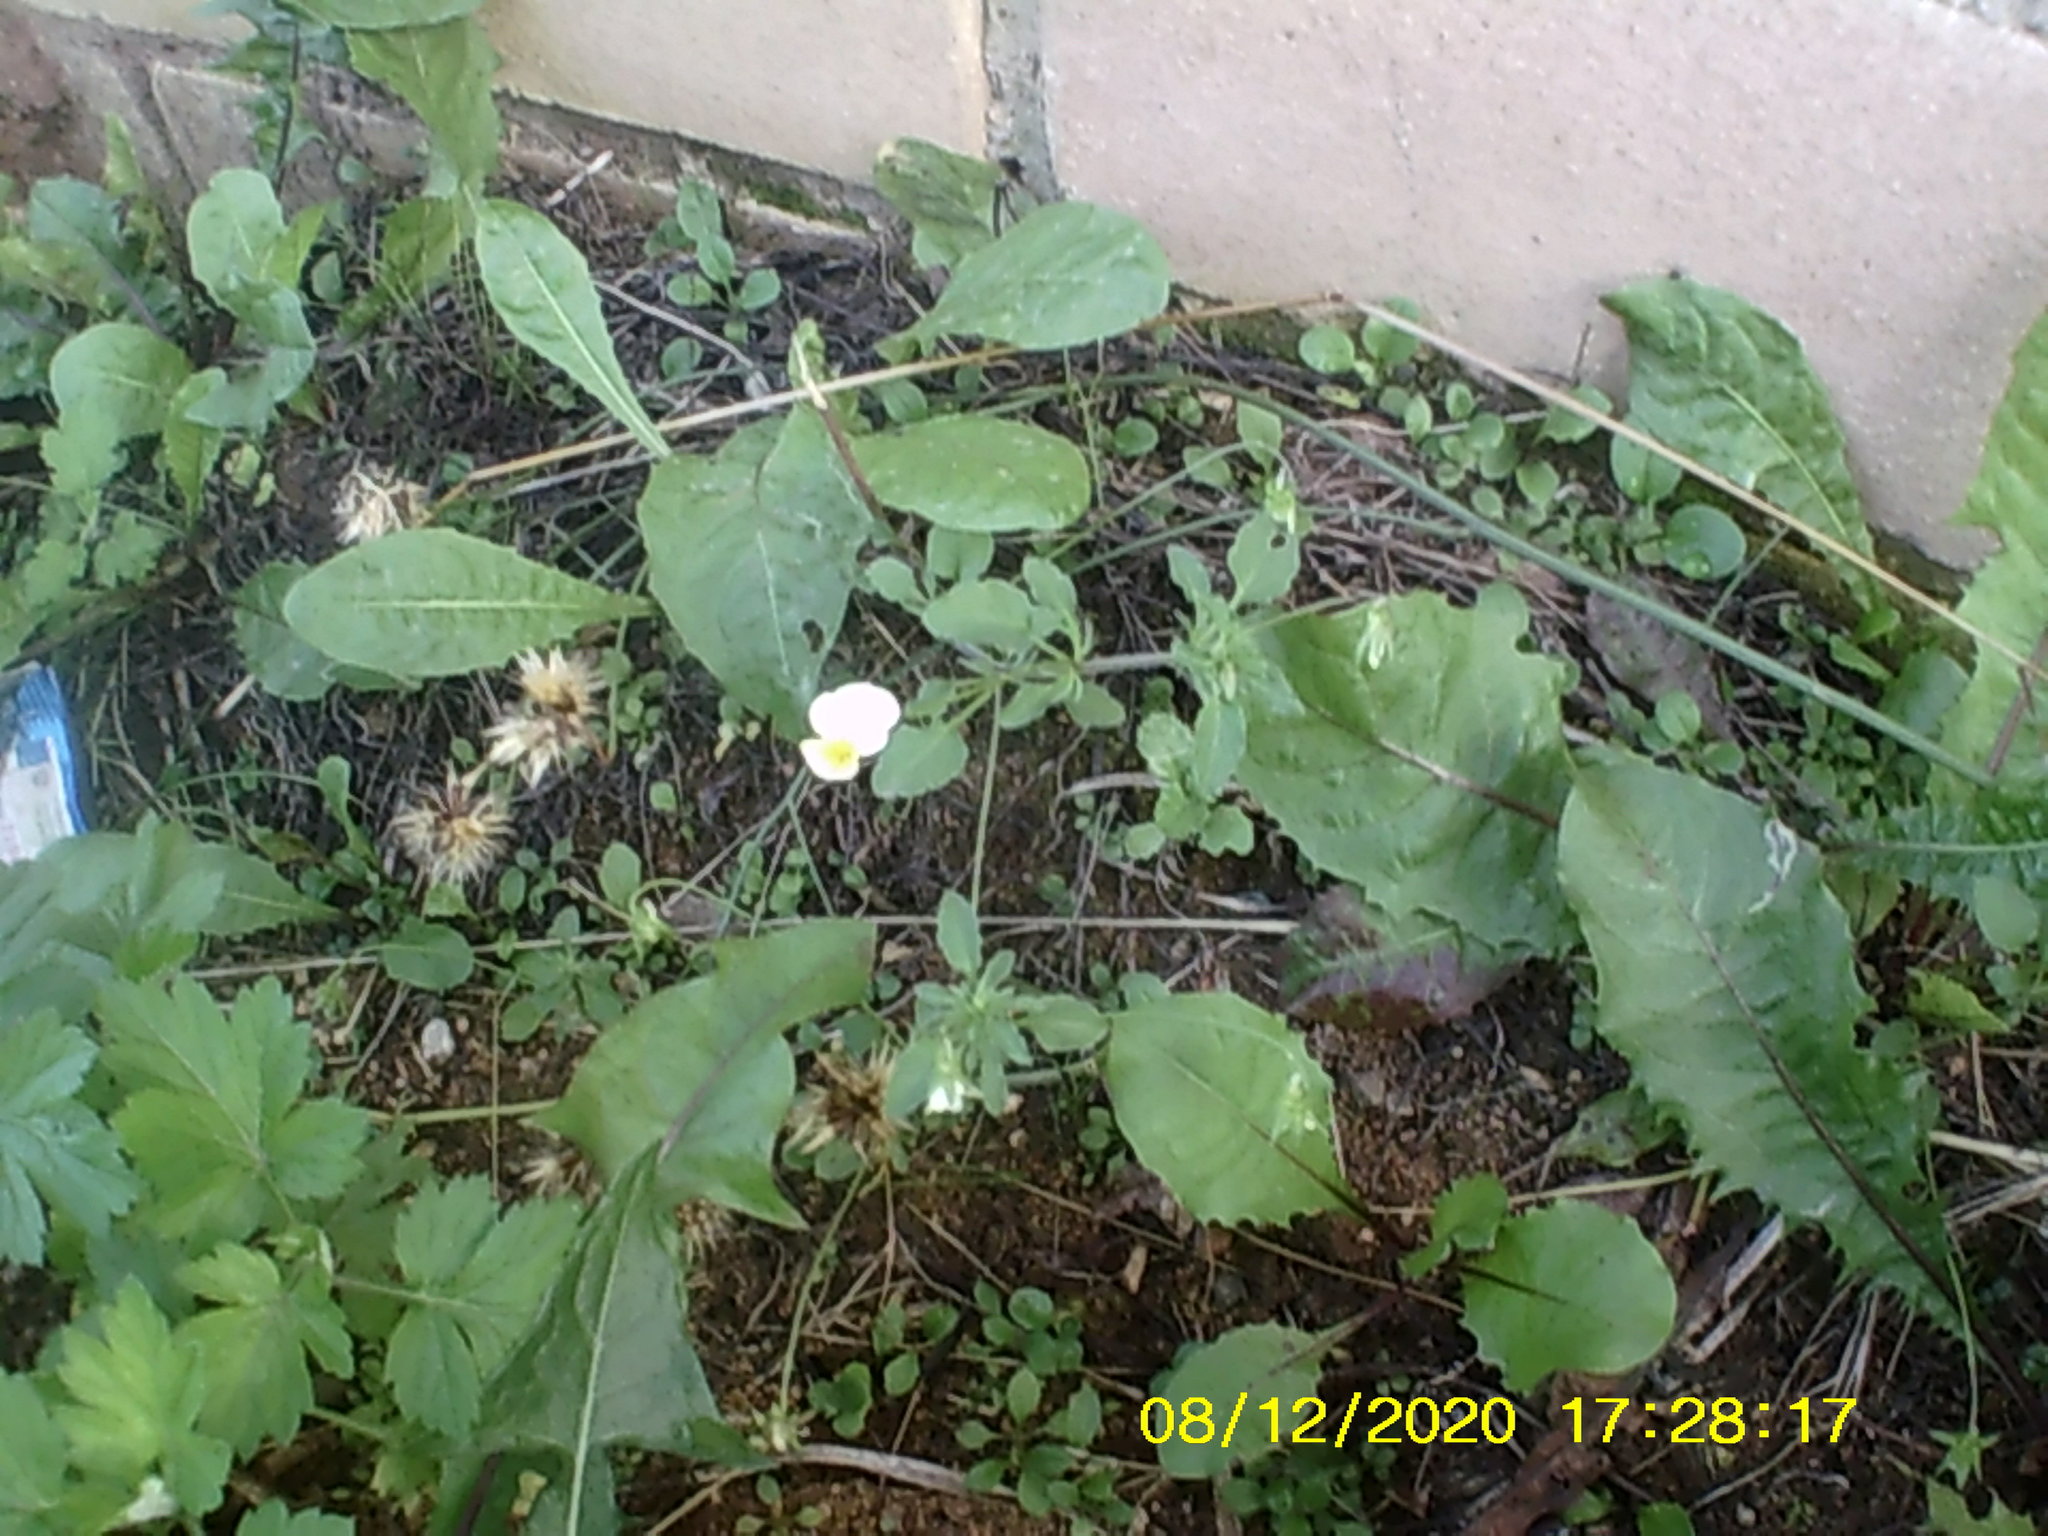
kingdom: Plantae
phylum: Tracheophyta
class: Magnoliopsida
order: Malpighiales
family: Violaceae
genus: Viola
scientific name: Viola arvensis
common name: Field pansy
